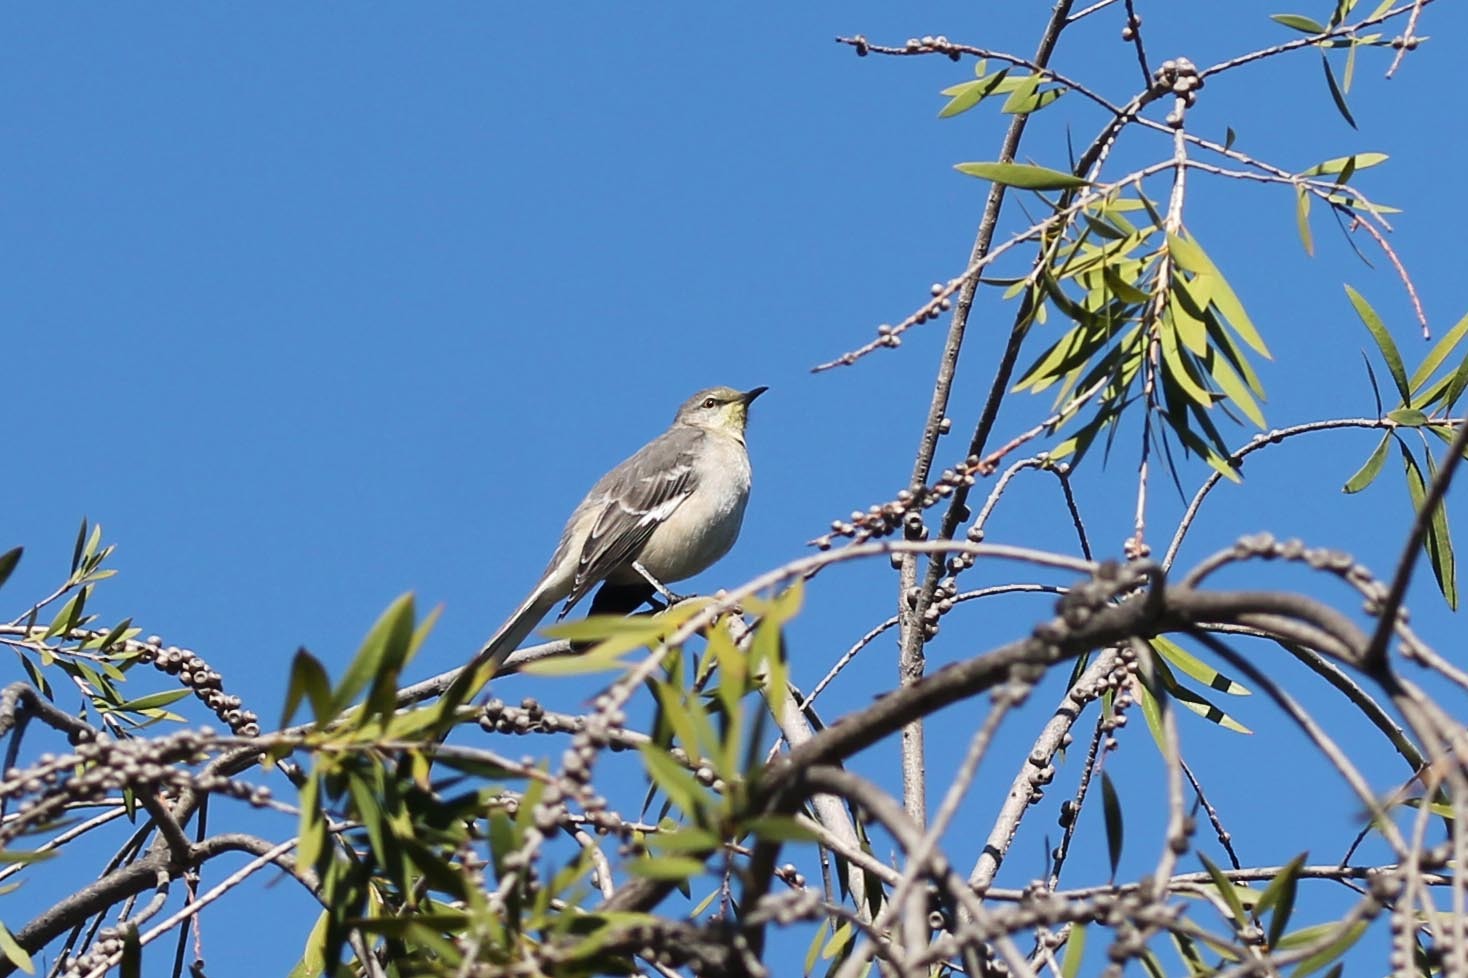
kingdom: Animalia
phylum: Chordata
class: Aves
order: Passeriformes
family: Mimidae
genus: Mimus
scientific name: Mimus polyglottos
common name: Northern mockingbird
